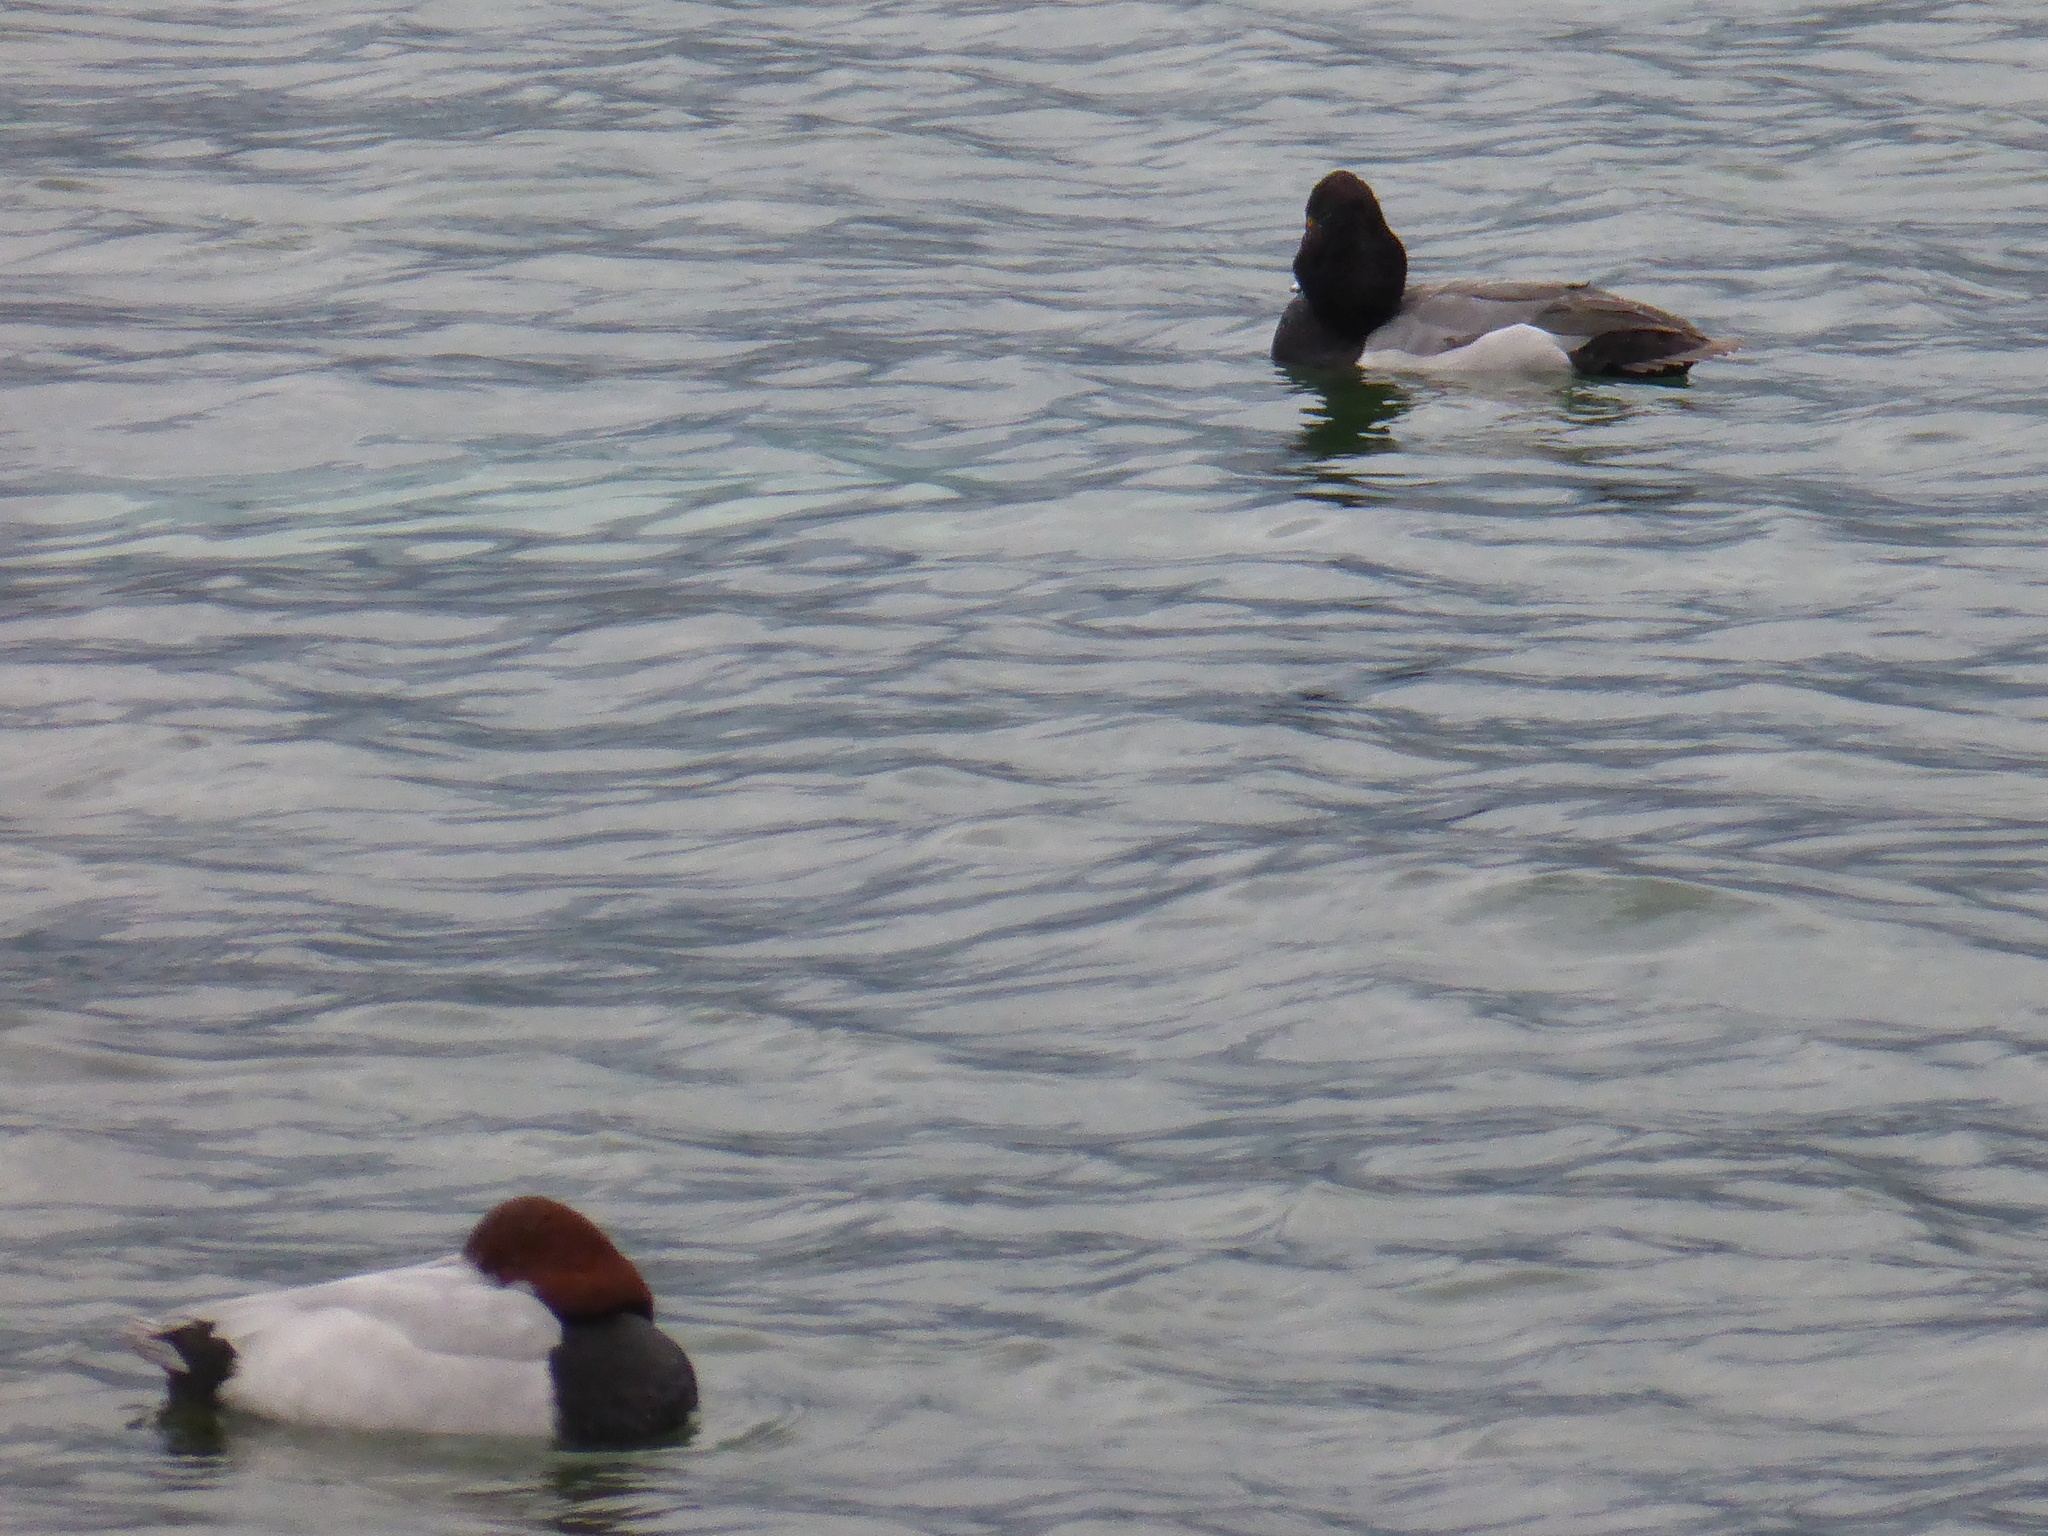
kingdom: Animalia
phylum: Chordata
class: Aves
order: Anseriformes
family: Anatidae
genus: Aythya
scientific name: Aythya
